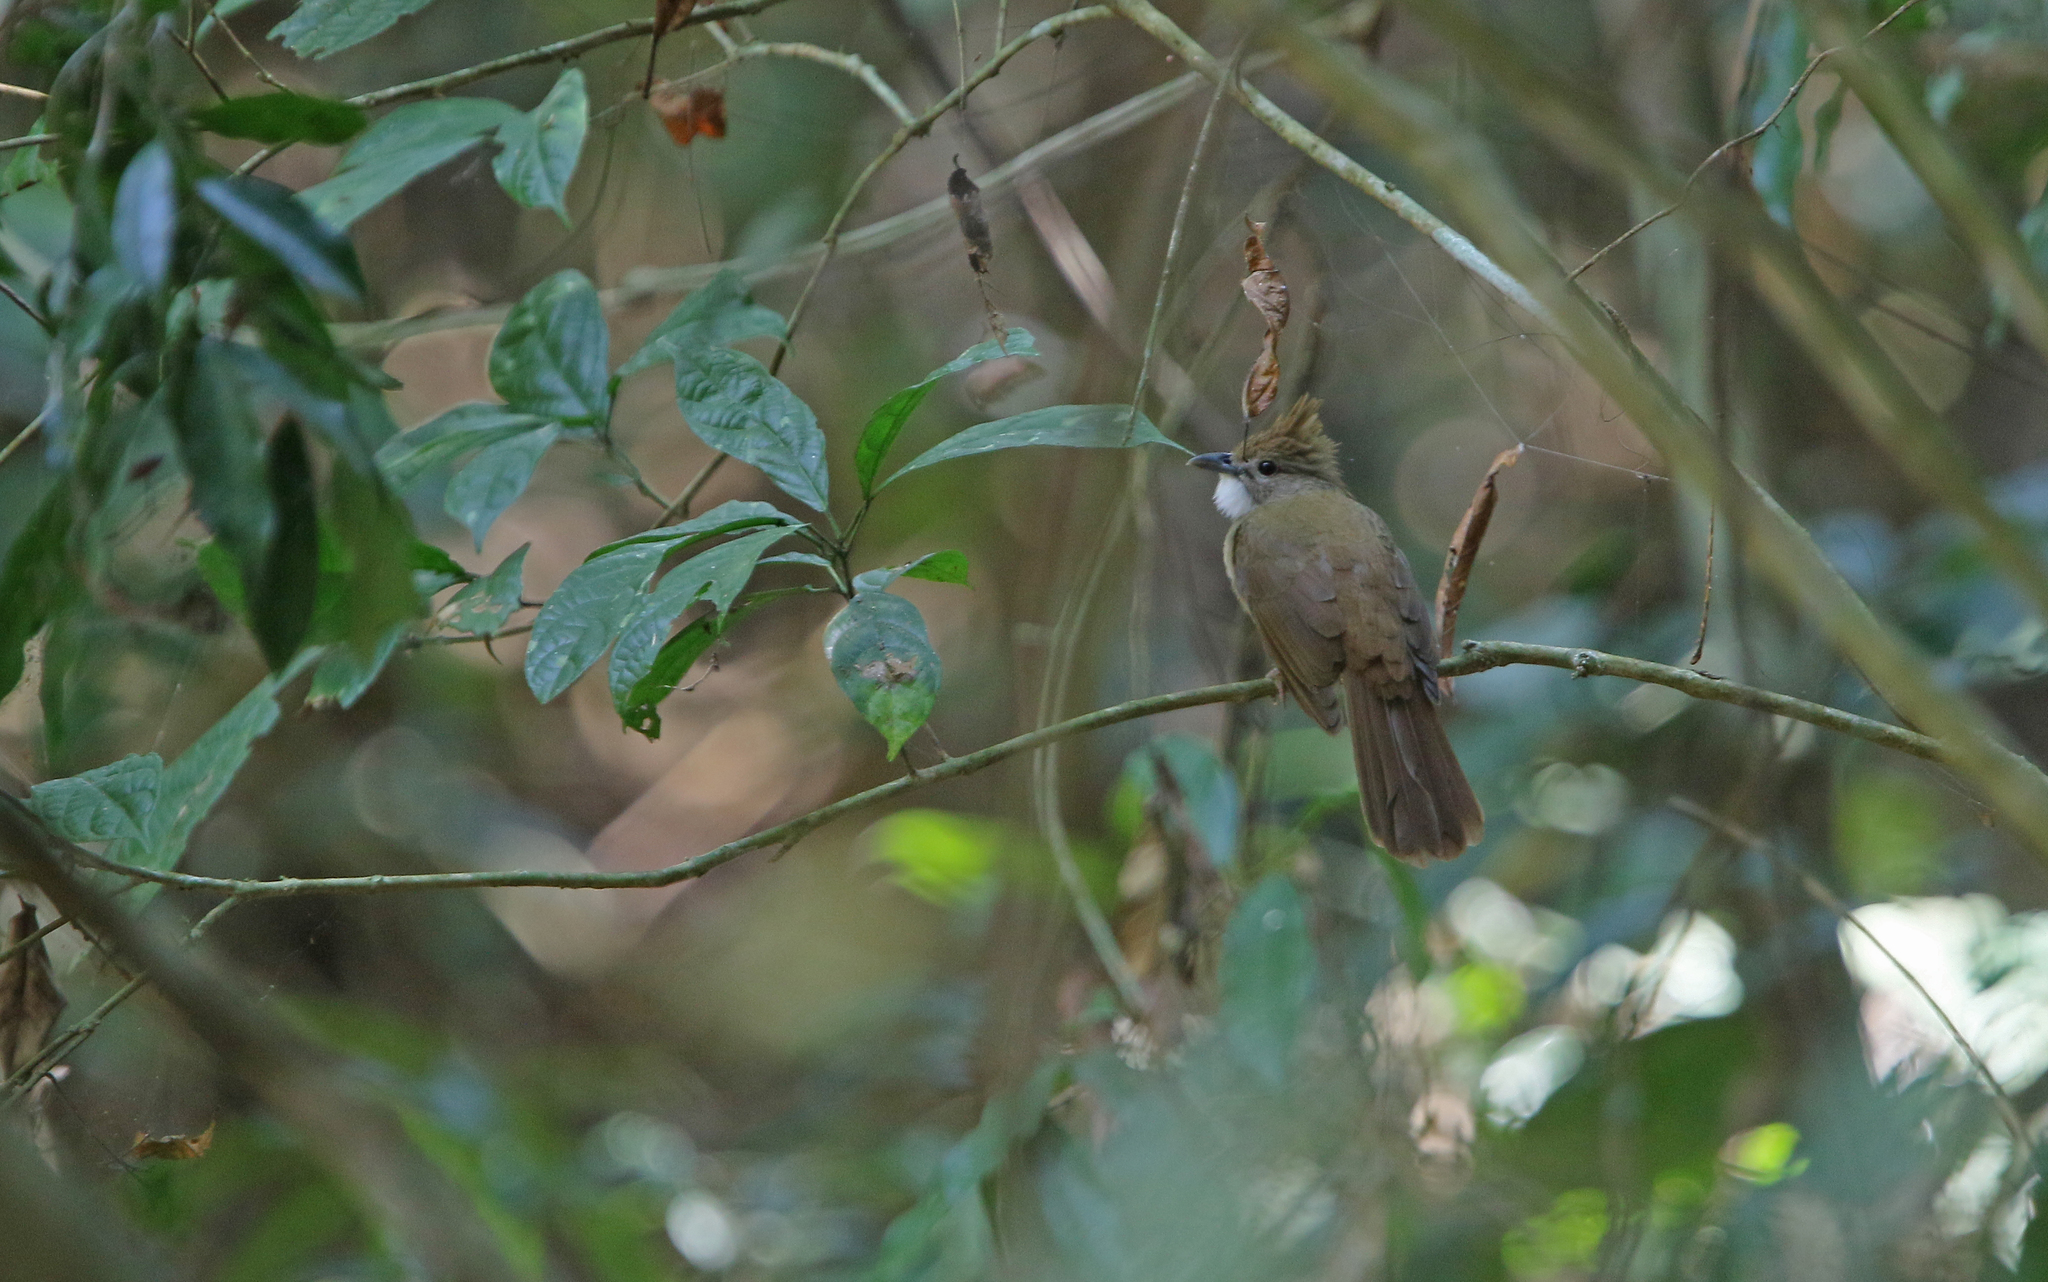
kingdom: Animalia
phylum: Chordata
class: Aves
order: Passeriformes
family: Pycnonotidae
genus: Alophoixus
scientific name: Alophoixus ochraceus
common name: Ochraceous bulbul
